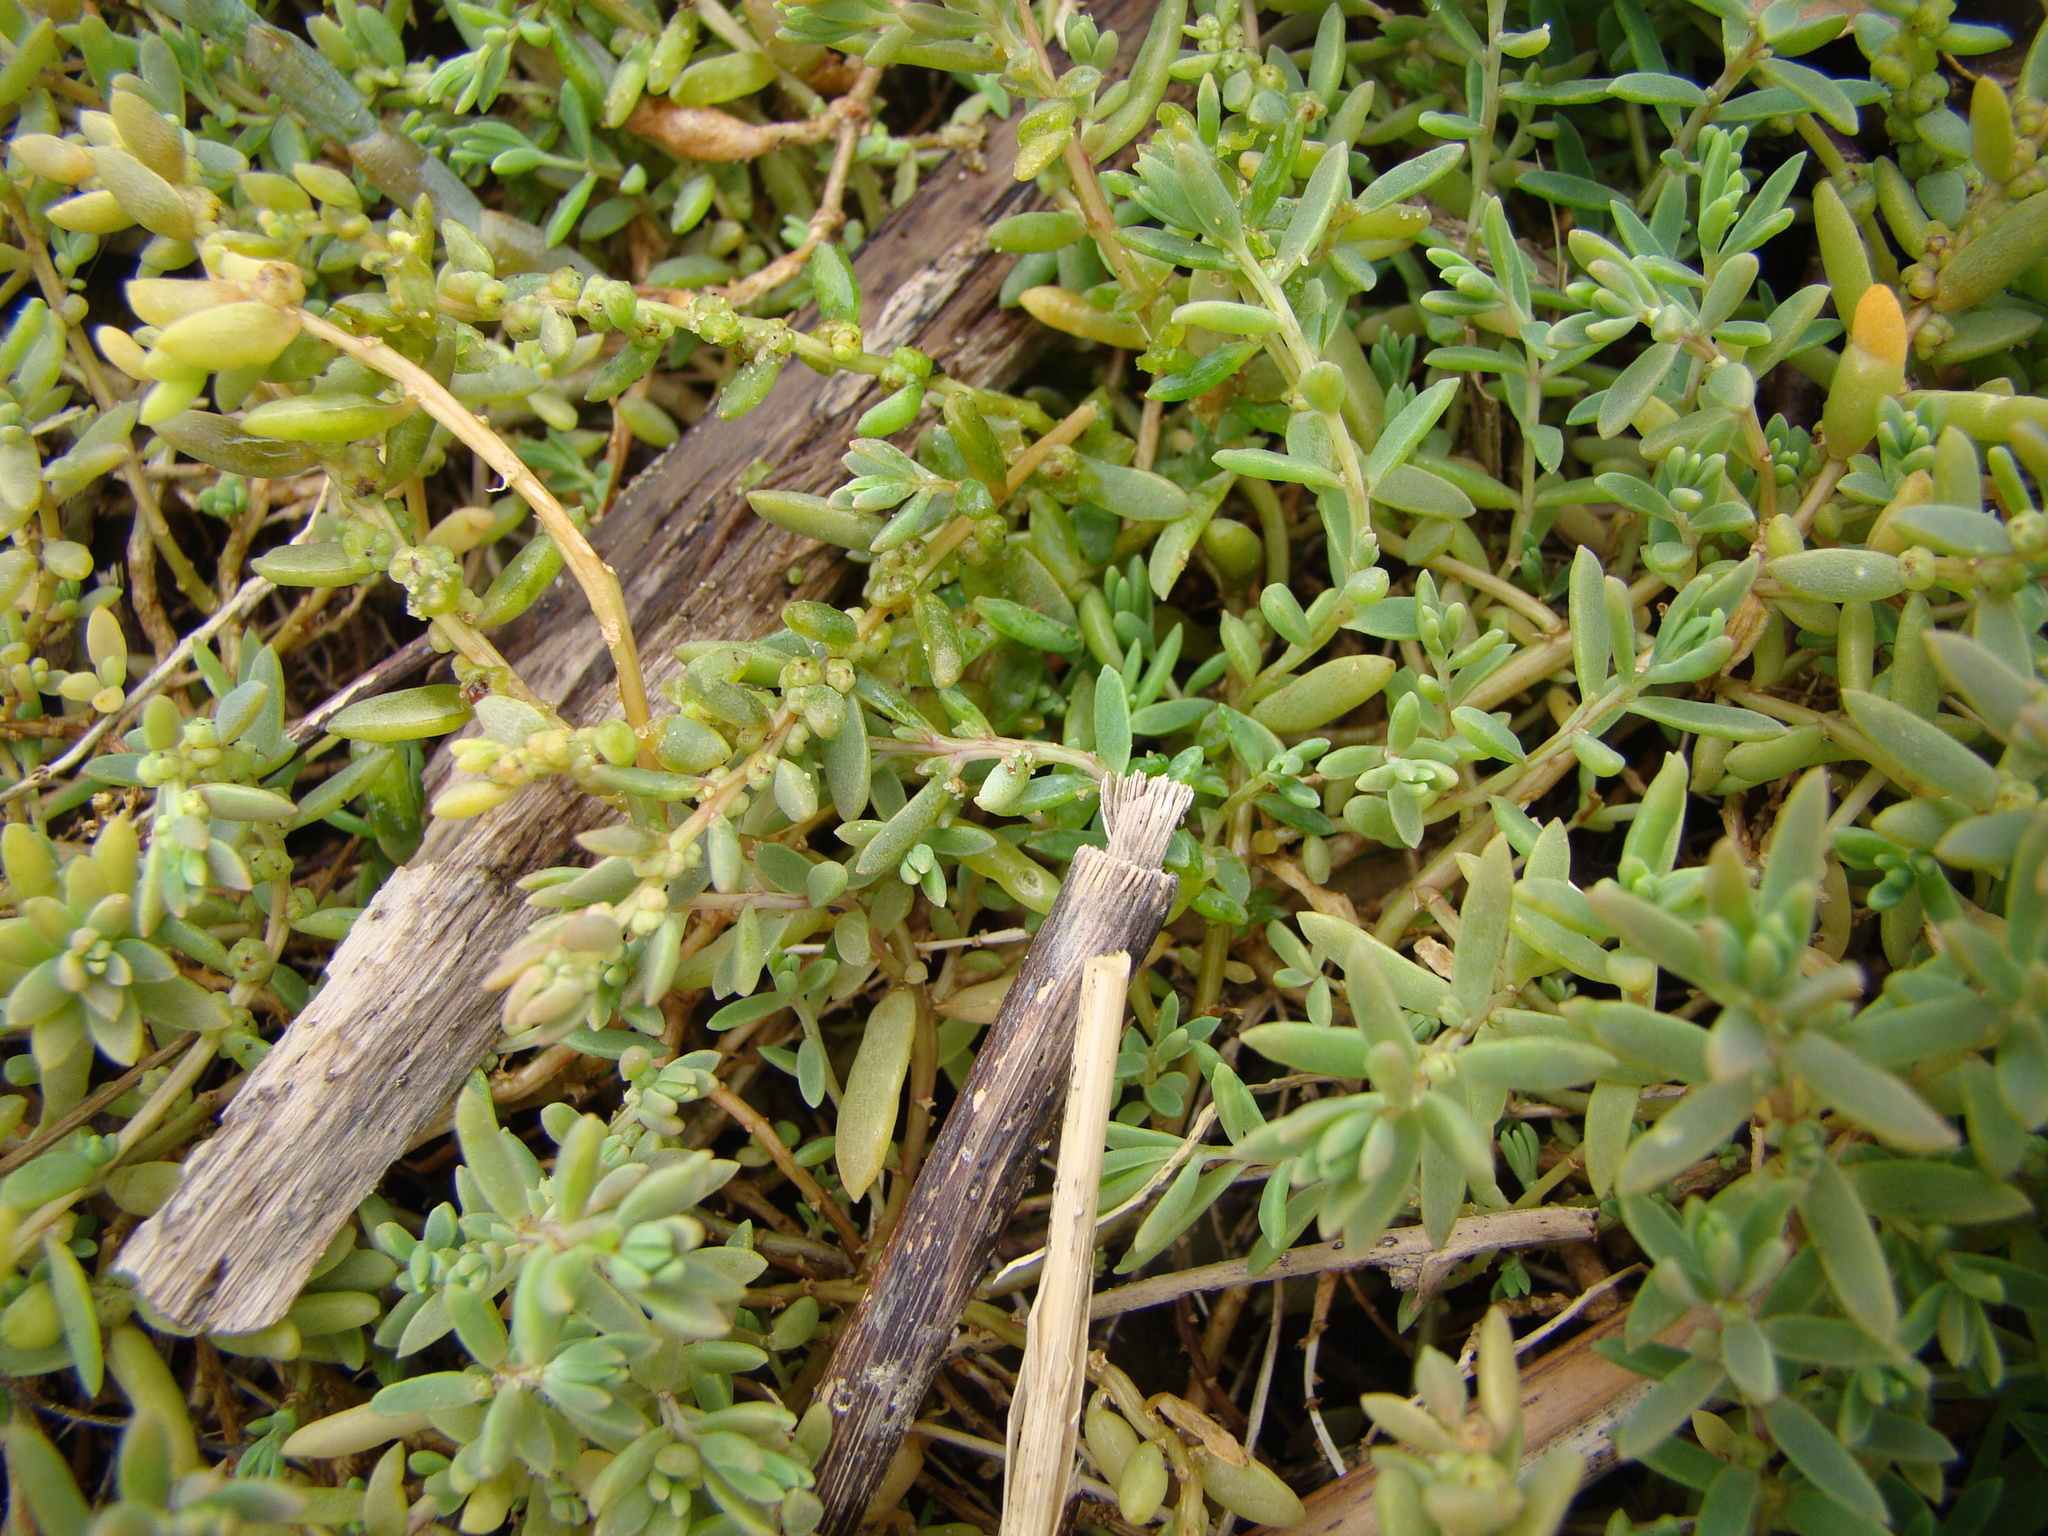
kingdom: Plantae
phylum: Tracheophyta
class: Magnoliopsida
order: Caryophyllales
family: Amaranthaceae
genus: Suaeda
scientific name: Suaeda novae-zelandiae
